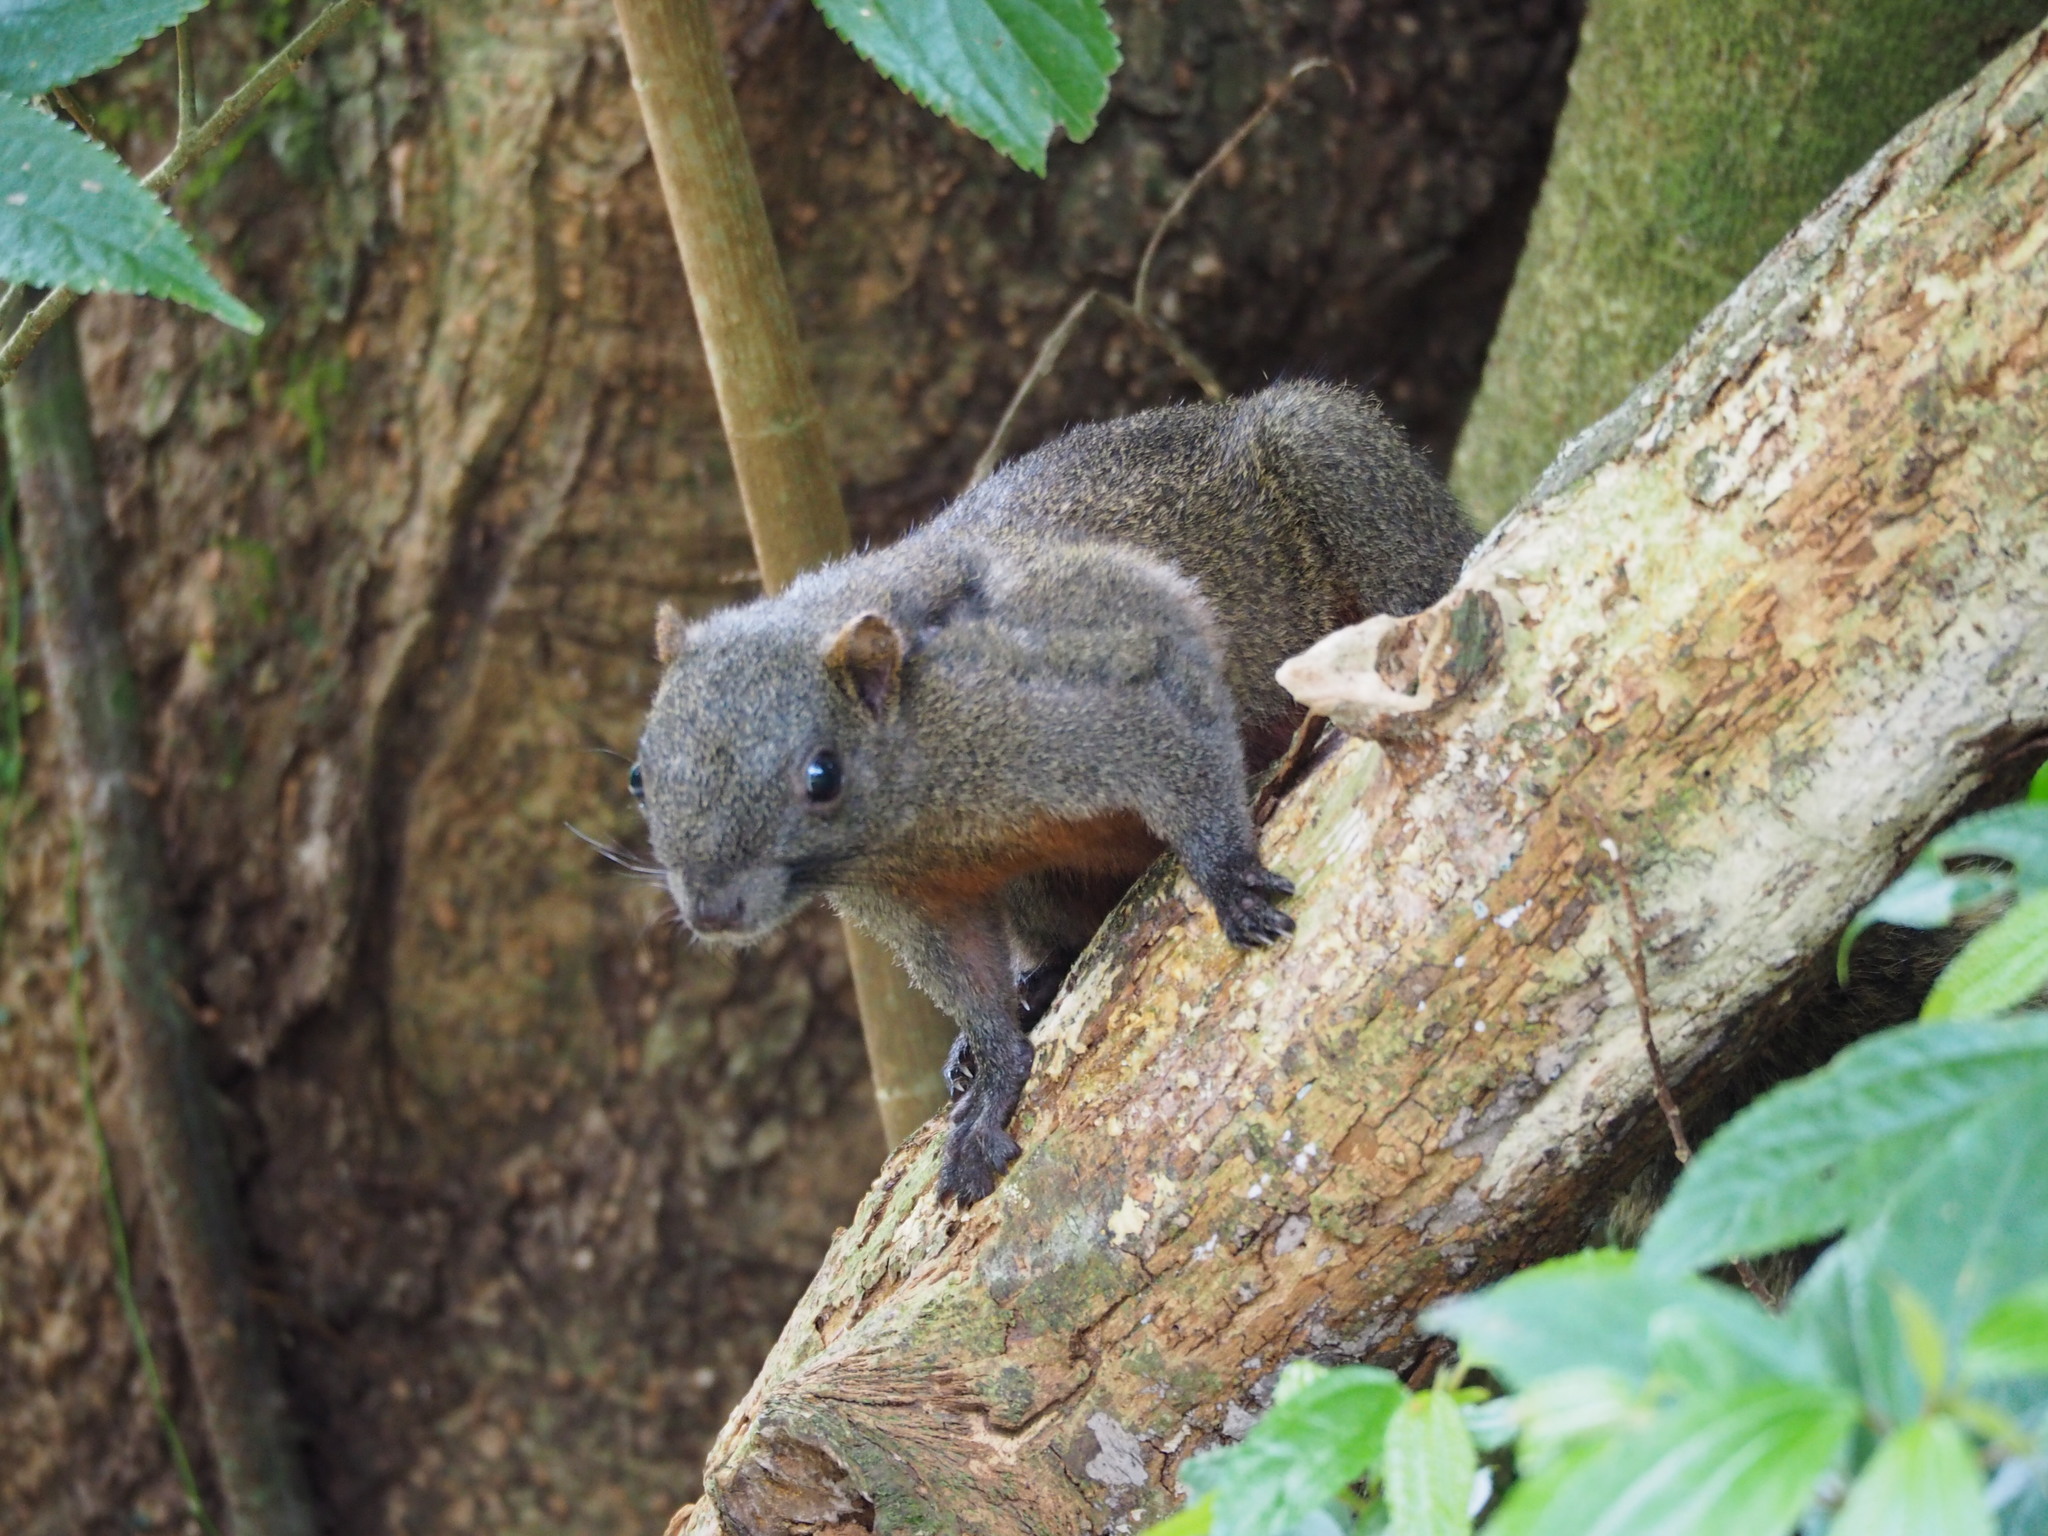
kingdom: Animalia
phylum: Chordata
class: Mammalia
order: Rodentia
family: Sciuridae
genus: Callosciurus
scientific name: Callosciurus erythraeus
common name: Pallas's squirrel
